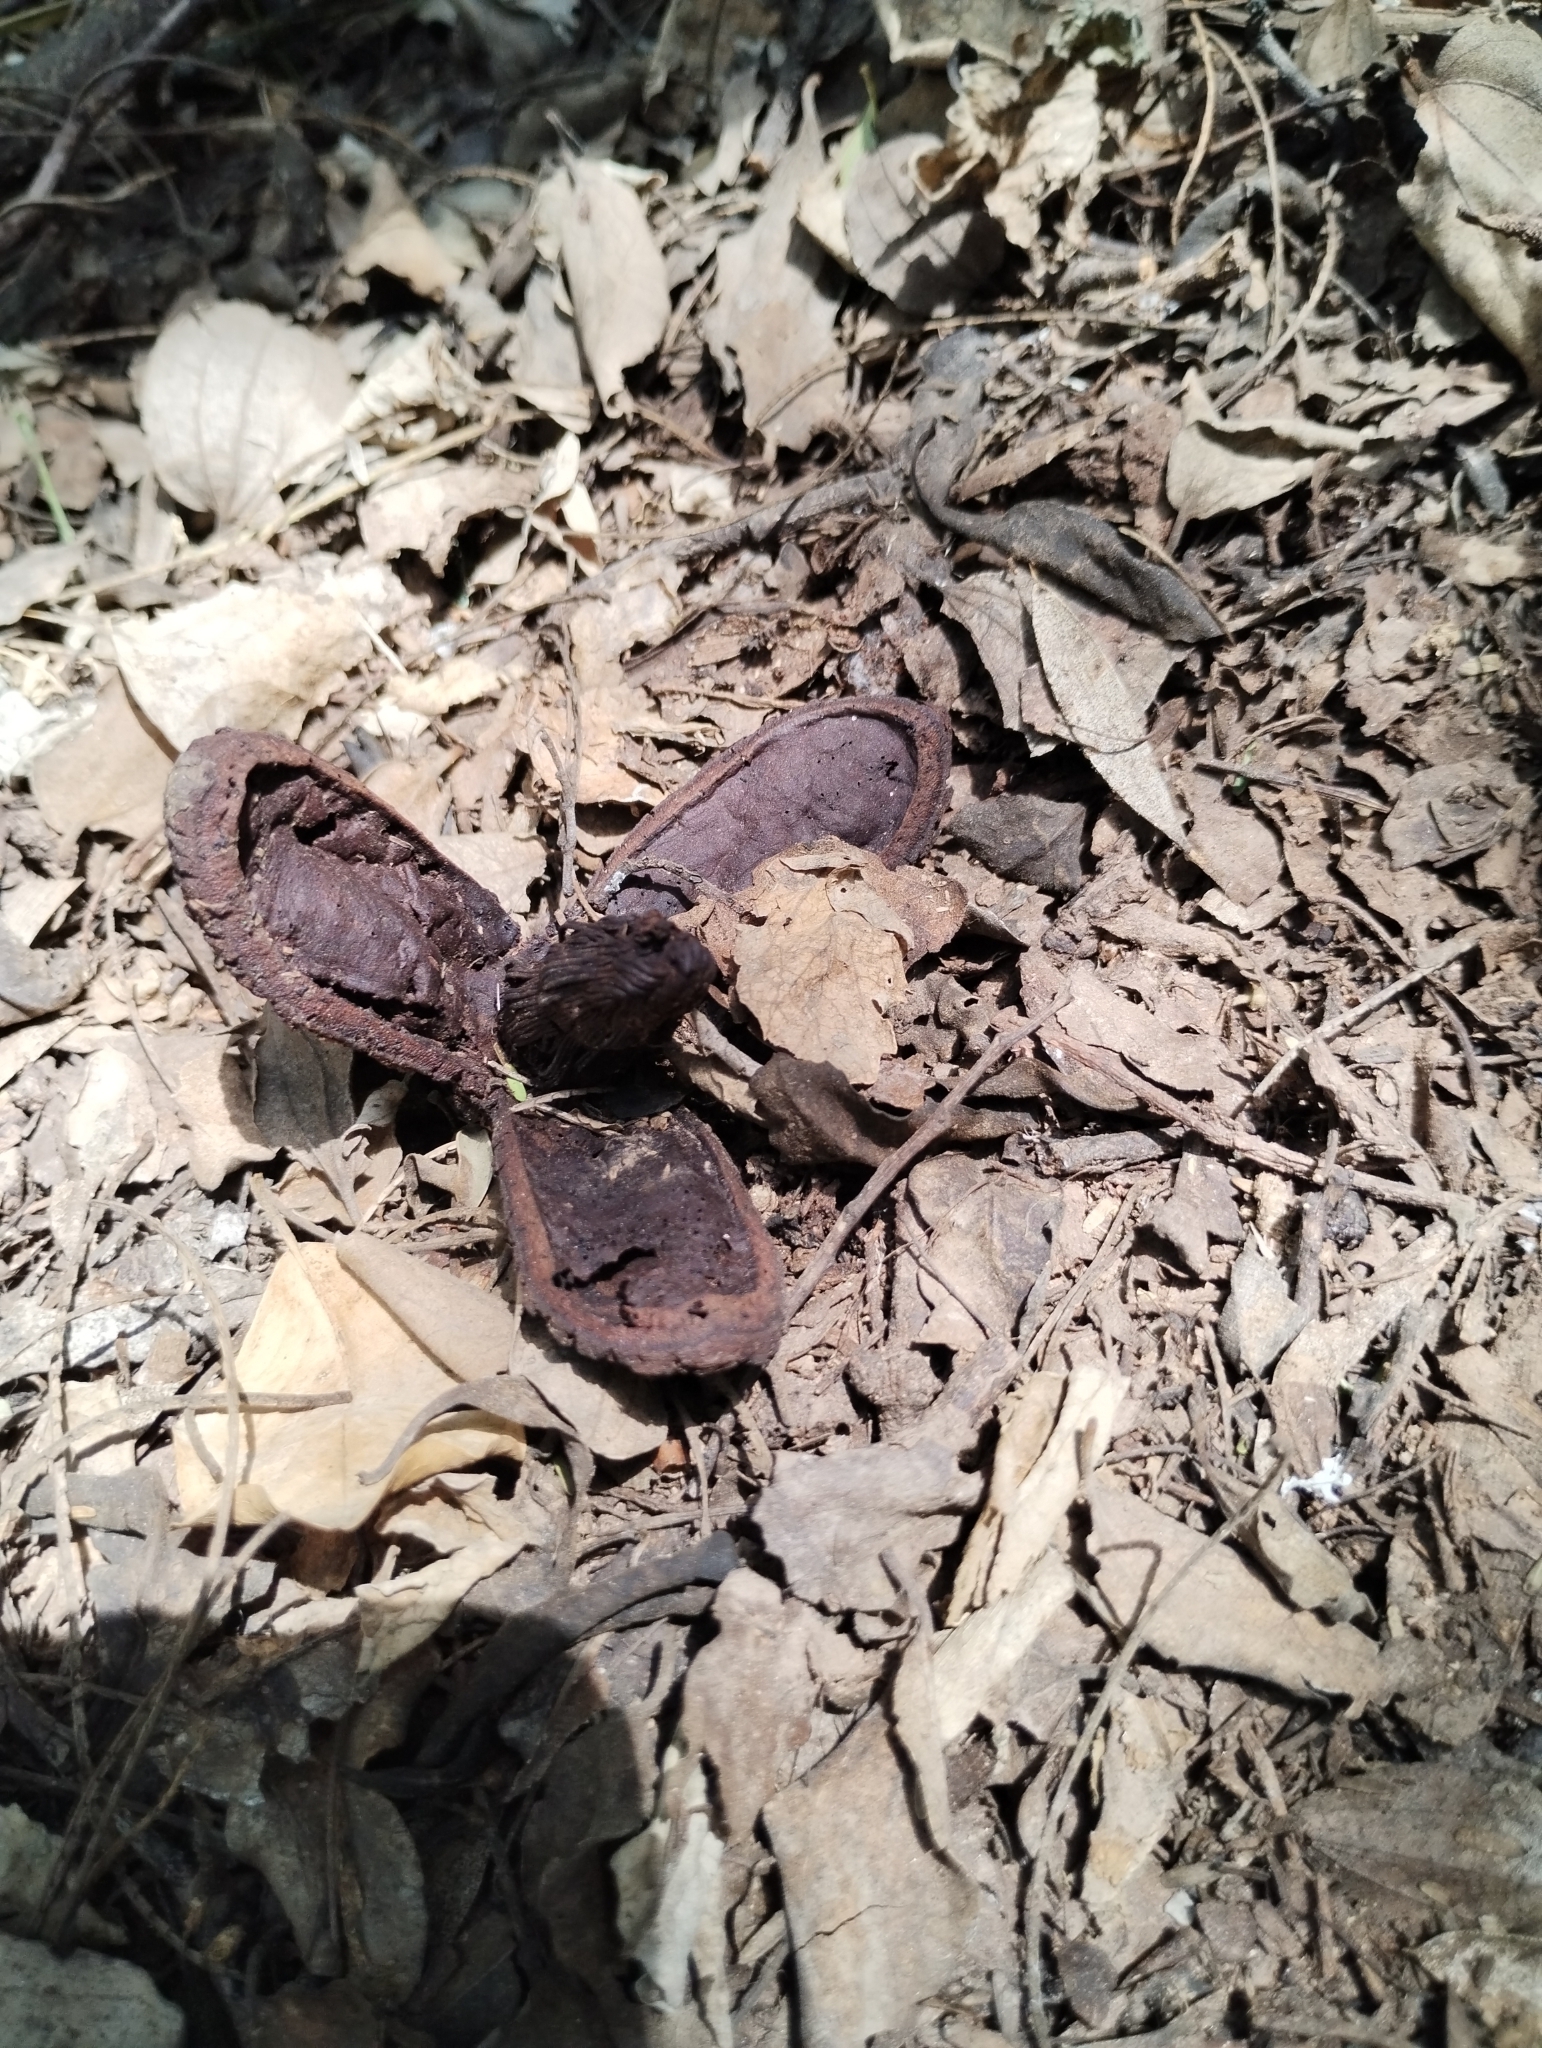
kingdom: Plantae
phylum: Tracheophyta
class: Magnoliopsida
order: Piperales
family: Hydnoraceae
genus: Prosopanche
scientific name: Prosopanche americana
